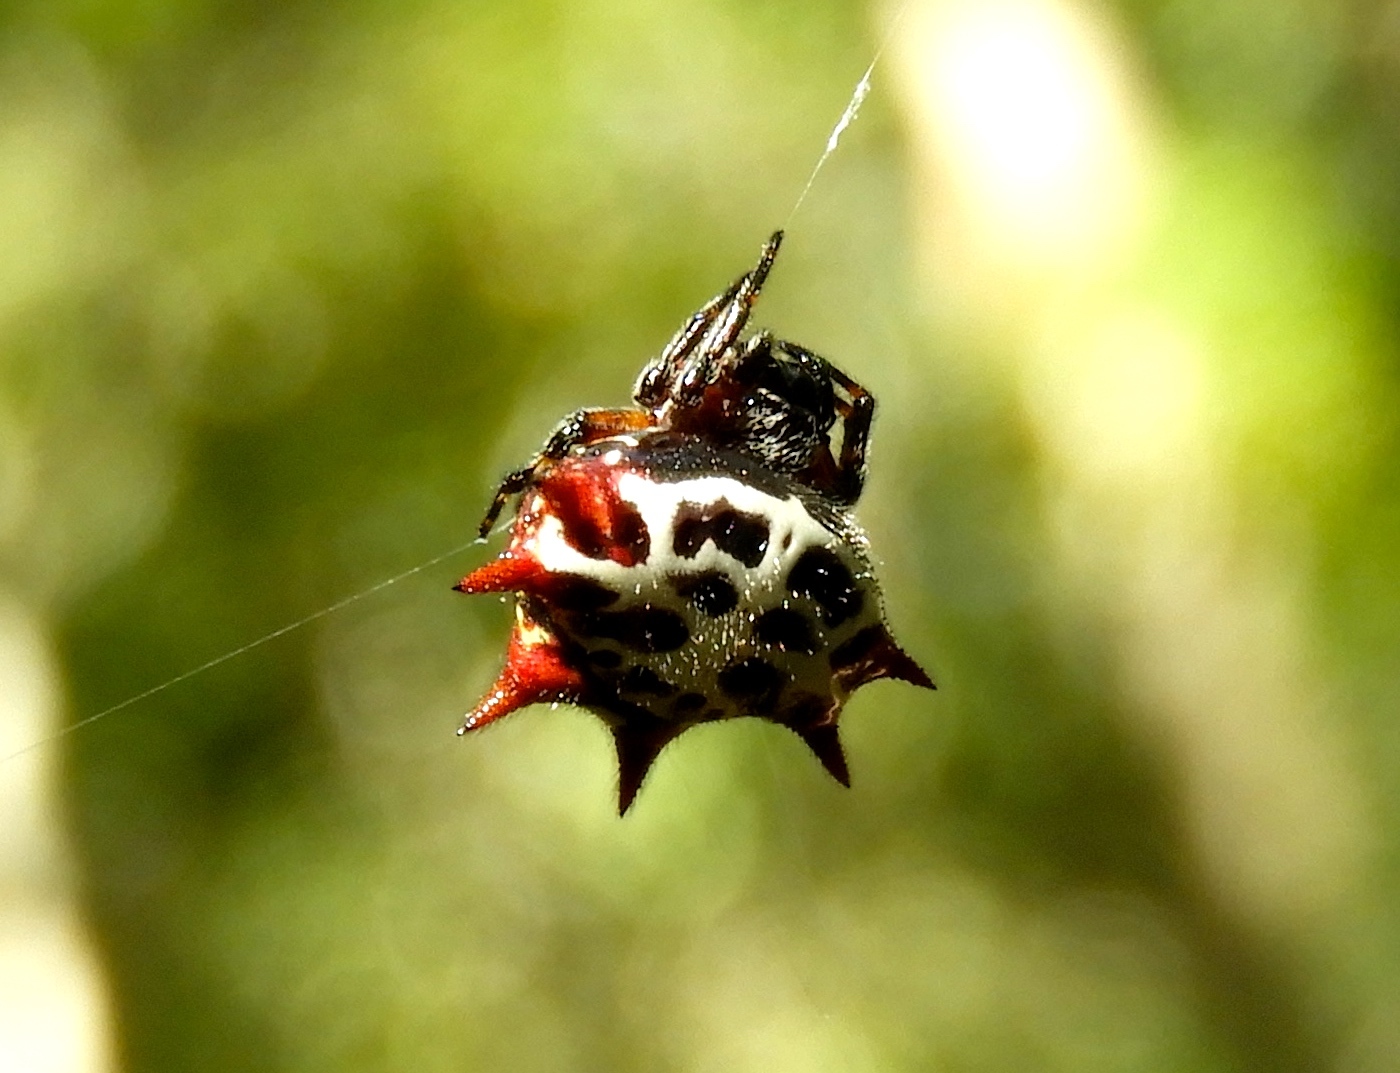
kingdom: Animalia
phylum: Arthropoda
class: Arachnida
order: Araneae
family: Araneidae
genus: Gasteracantha
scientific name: Gasteracantha cancriformis
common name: Orb weavers
